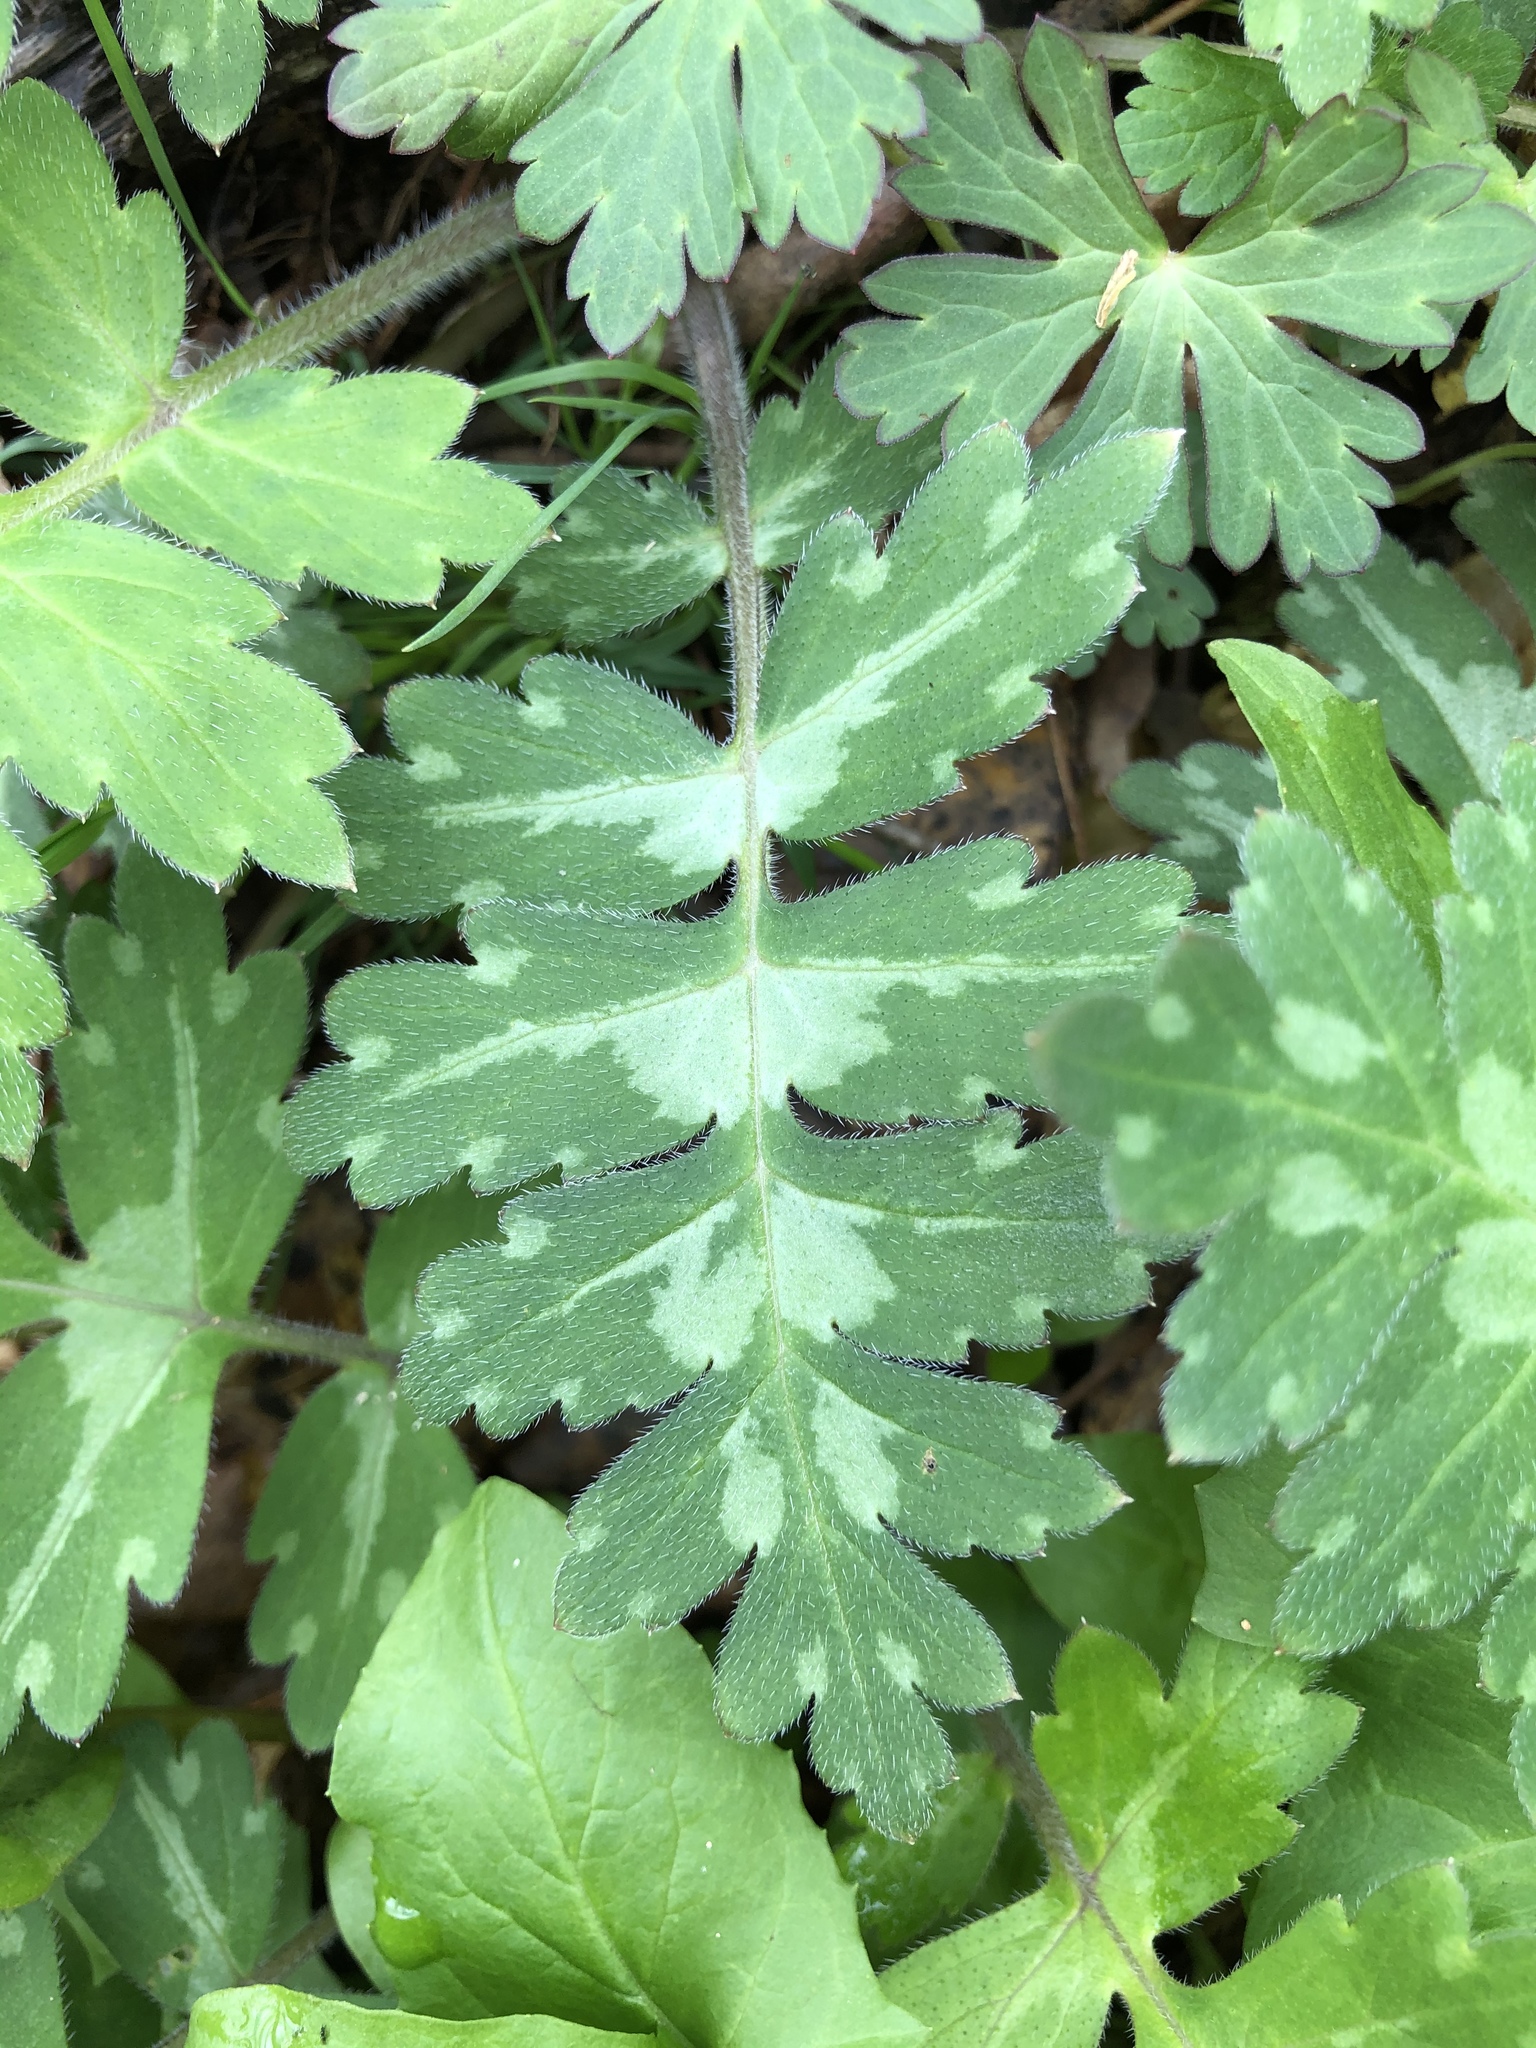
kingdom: Plantae
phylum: Tracheophyta
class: Magnoliopsida
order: Boraginales
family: Hydrophyllaceae
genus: Hydrophyllum
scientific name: Hydrophyllum macrophyllum
